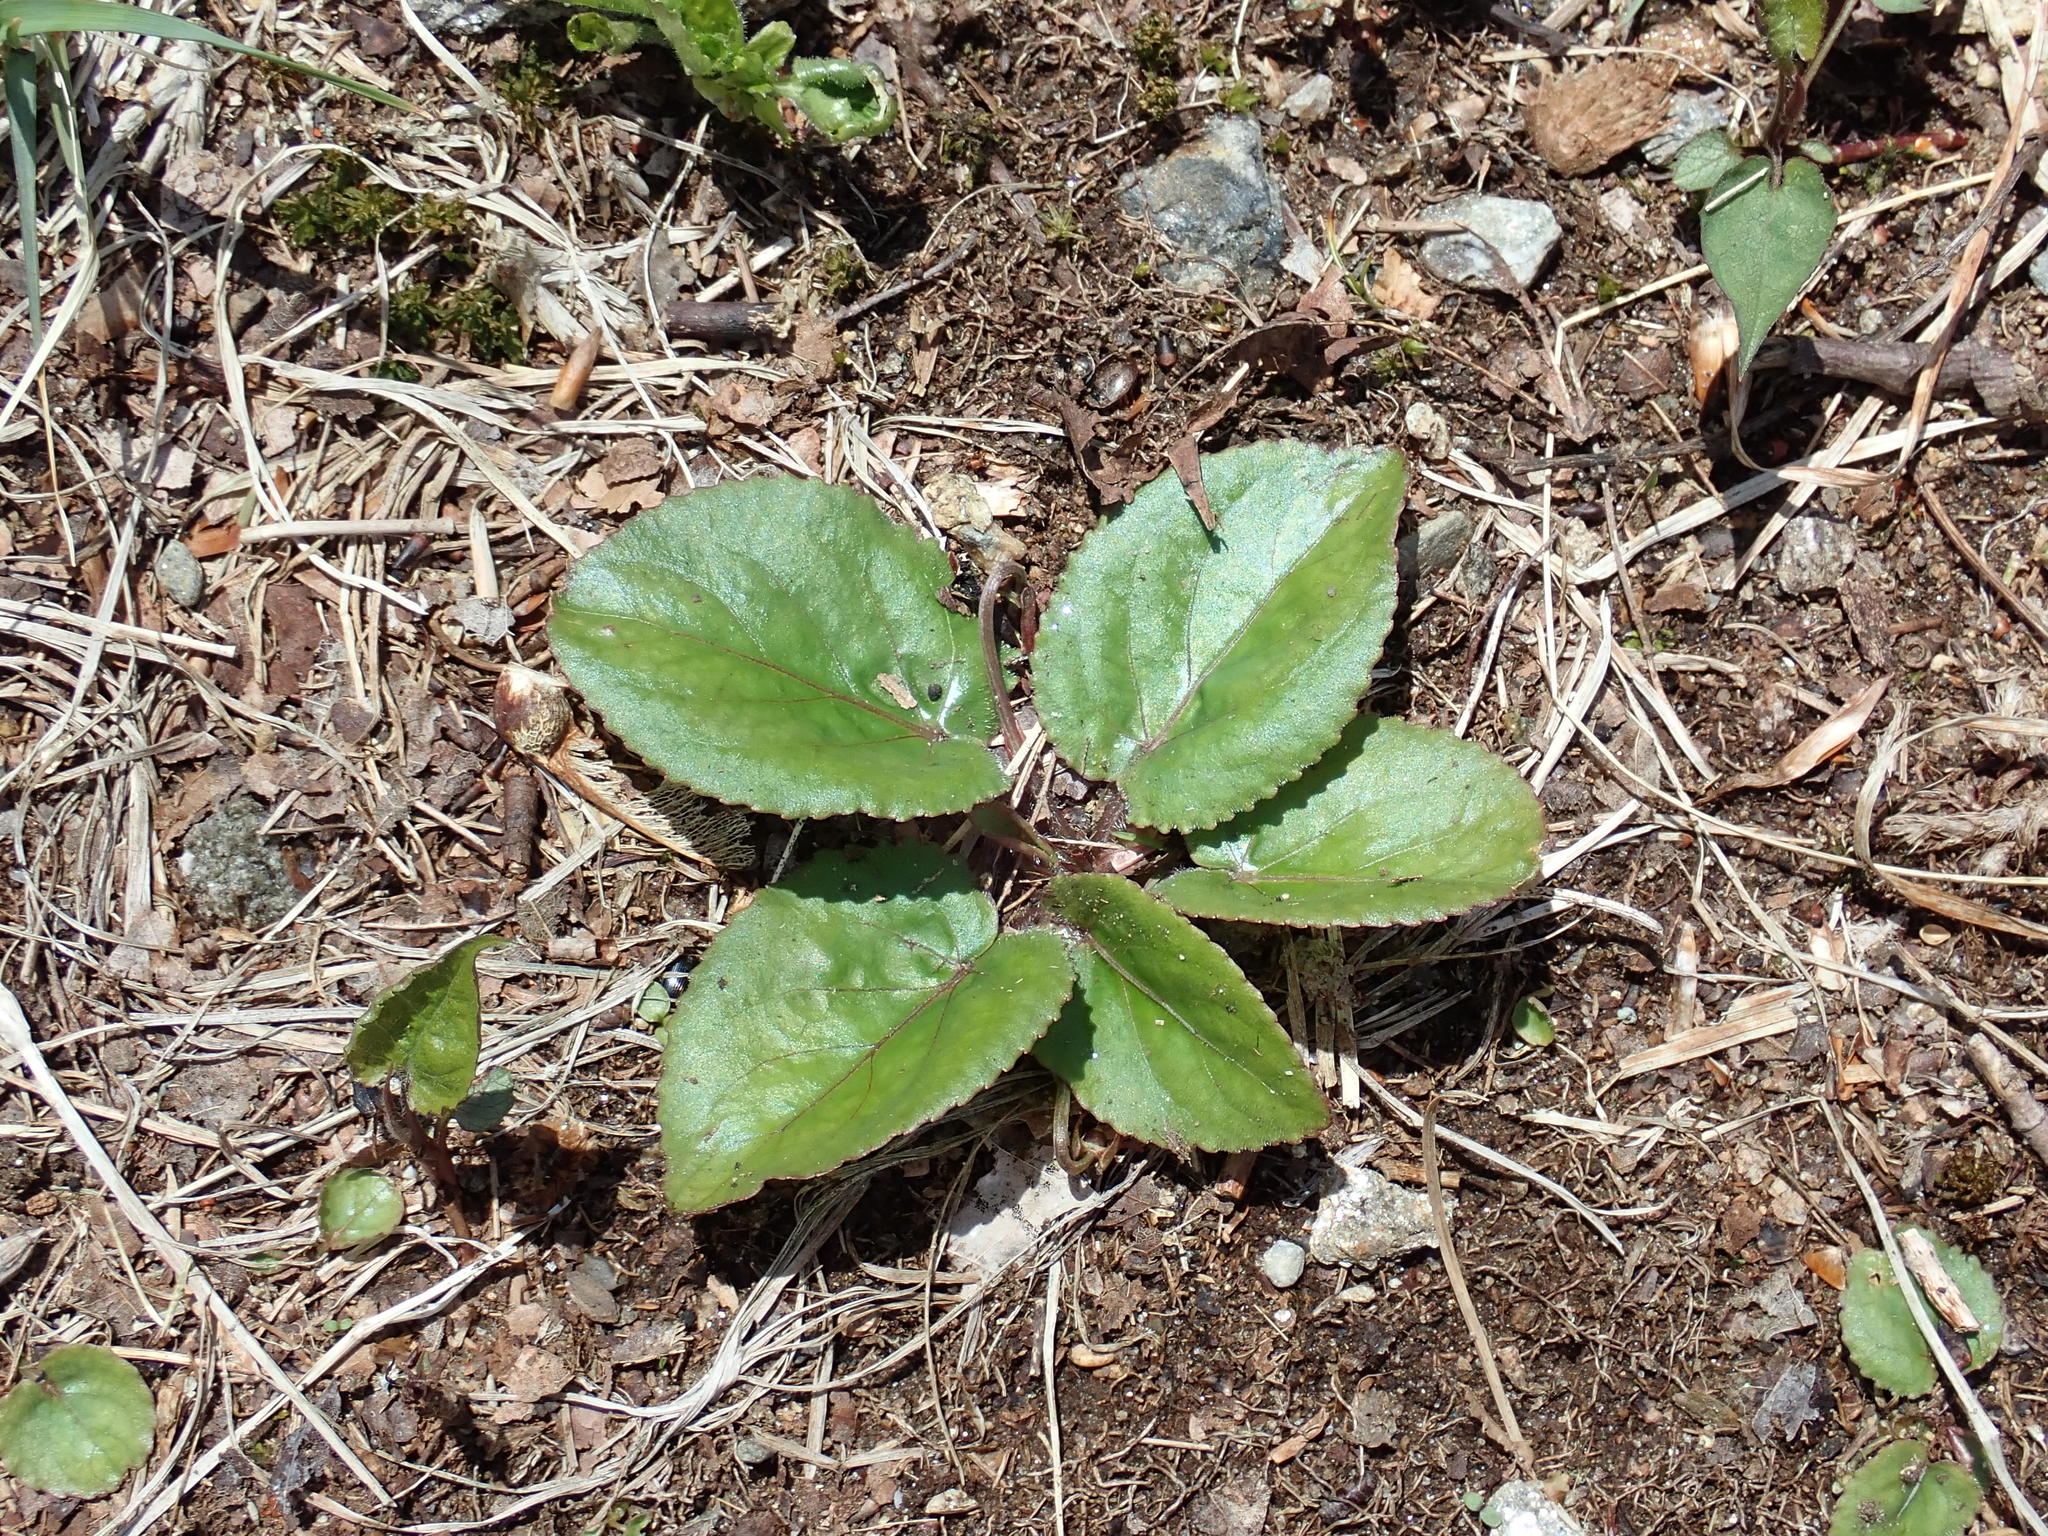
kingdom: Plantae
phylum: Tracheophyta
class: Magnoliopsida
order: Malpighiales
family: Violaceae
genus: Viola
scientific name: Viola rotundifolia
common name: Early yellow violet
